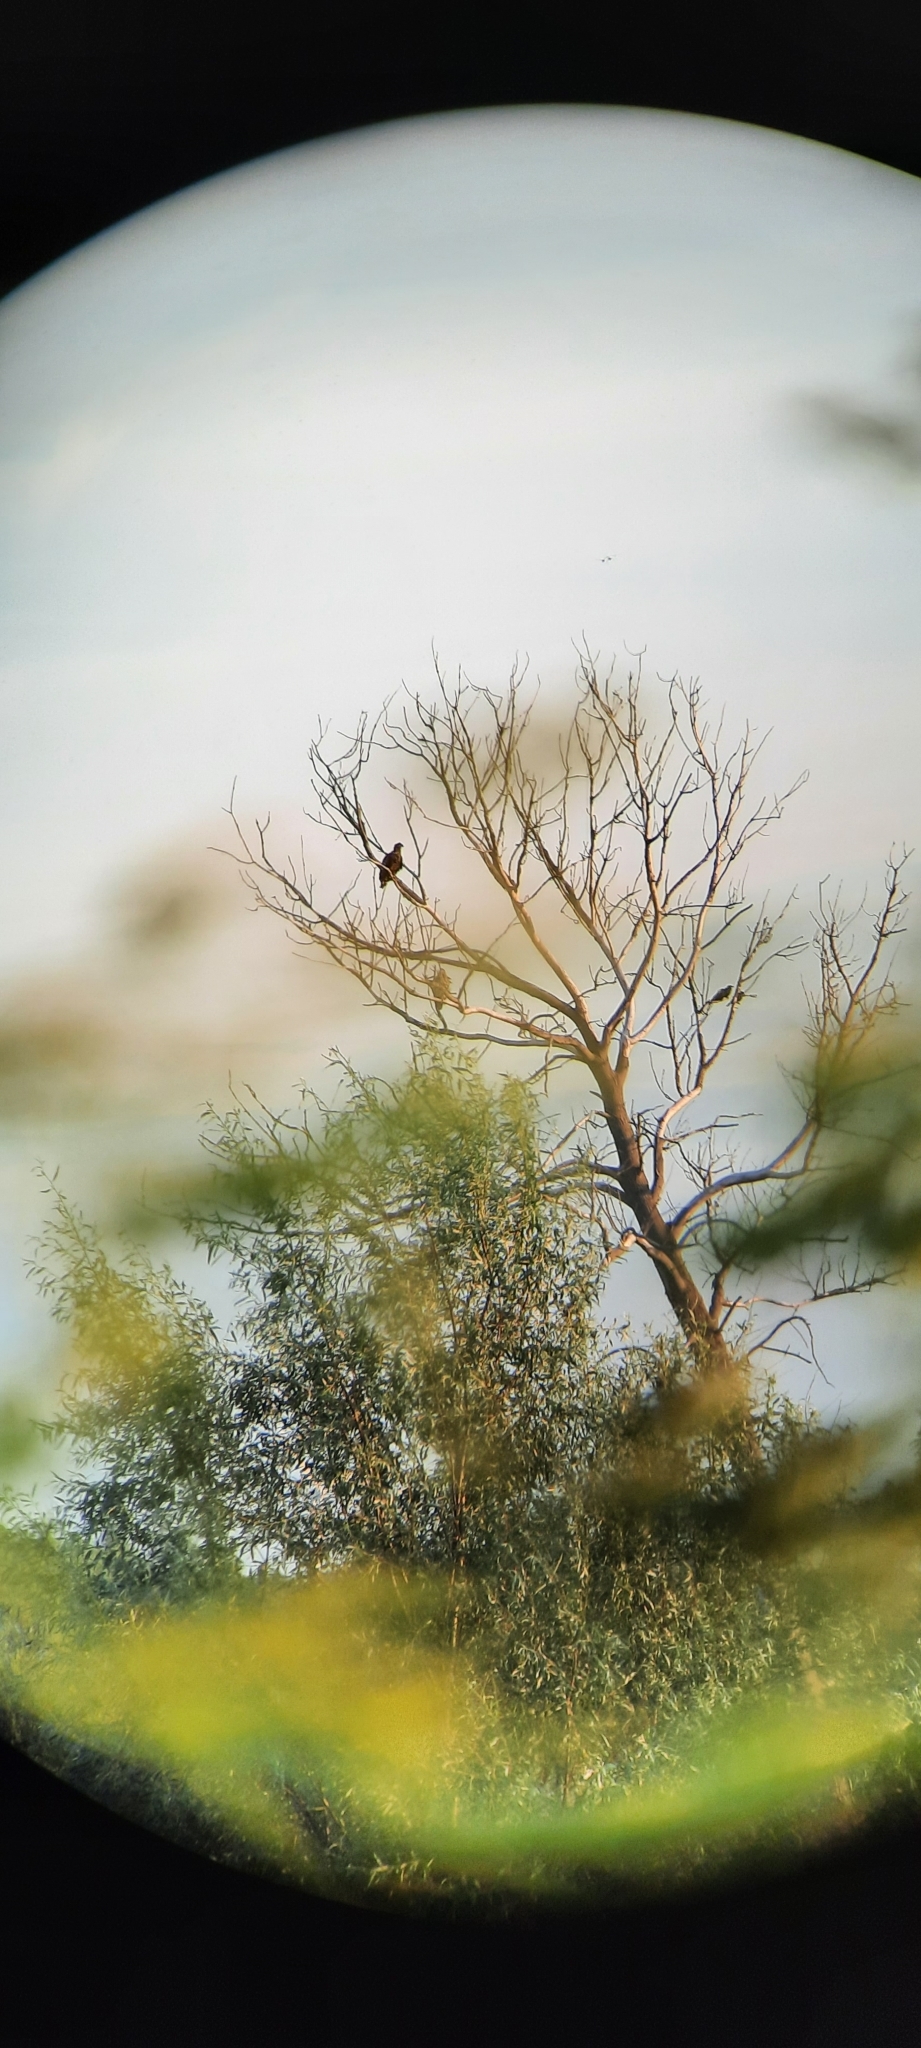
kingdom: Animalia
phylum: Chordata
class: Aves
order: Accipitriformes
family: Accipitridae
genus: Haliaeetus
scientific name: Haliaeetus albicilla
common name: White-tailed eagle
